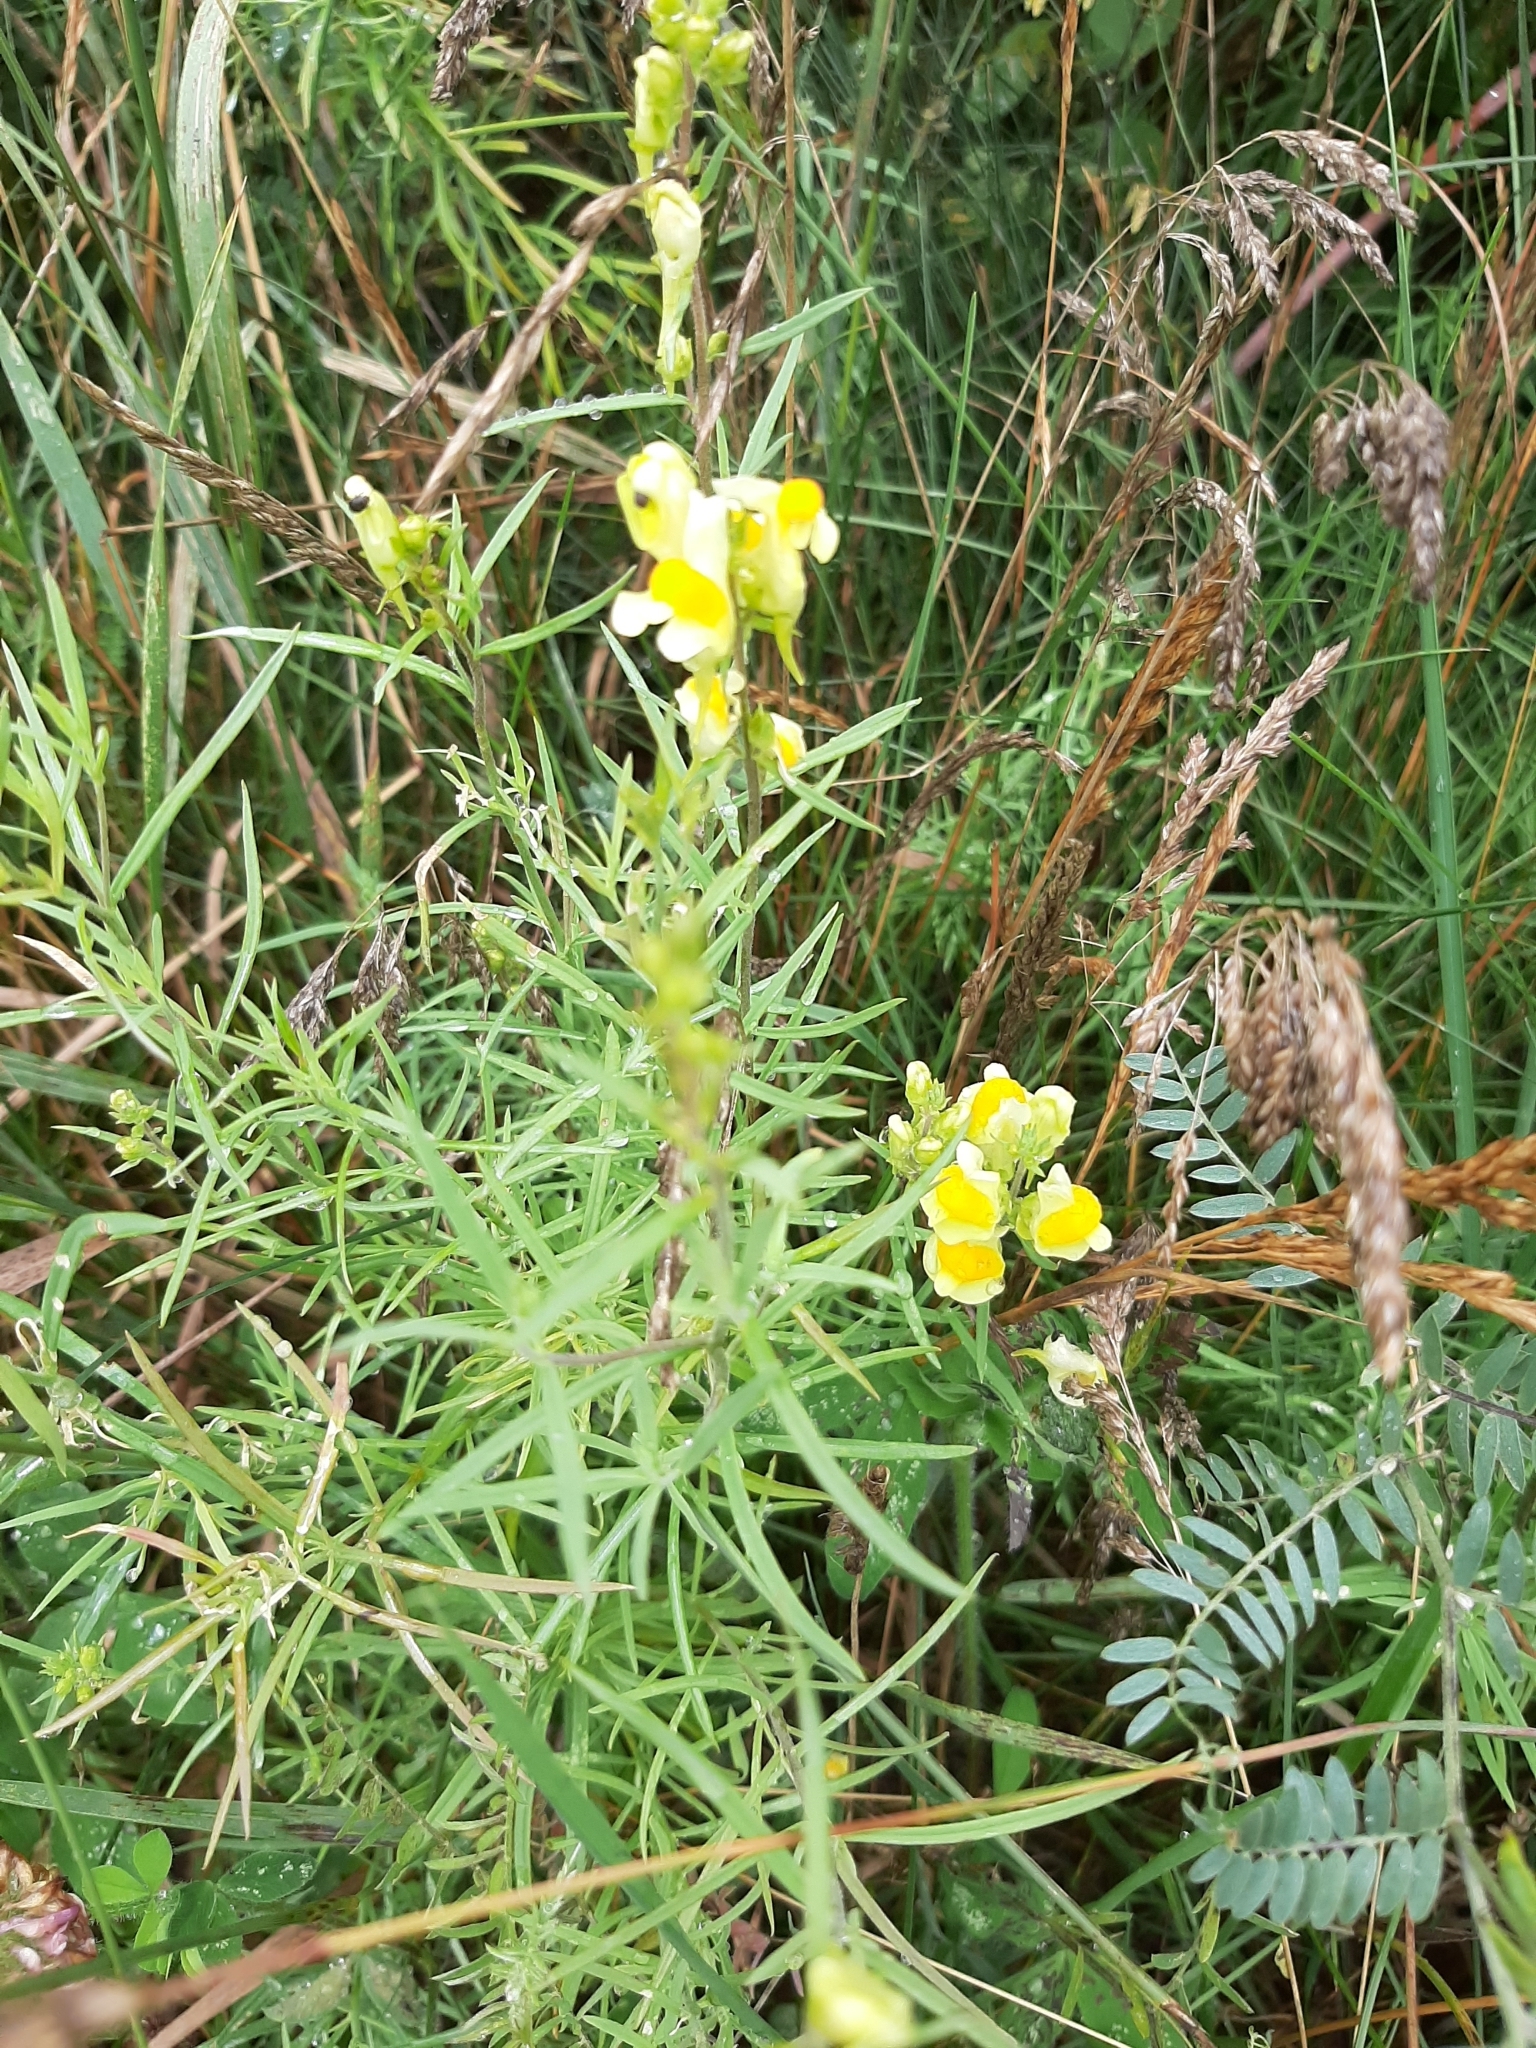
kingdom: Plantae
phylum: Tracheophyta
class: Magnoliopsida
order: Lamiales
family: Plantaginaceae
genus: Linaria
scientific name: Linaria vulgaris
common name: Butter and eggs
